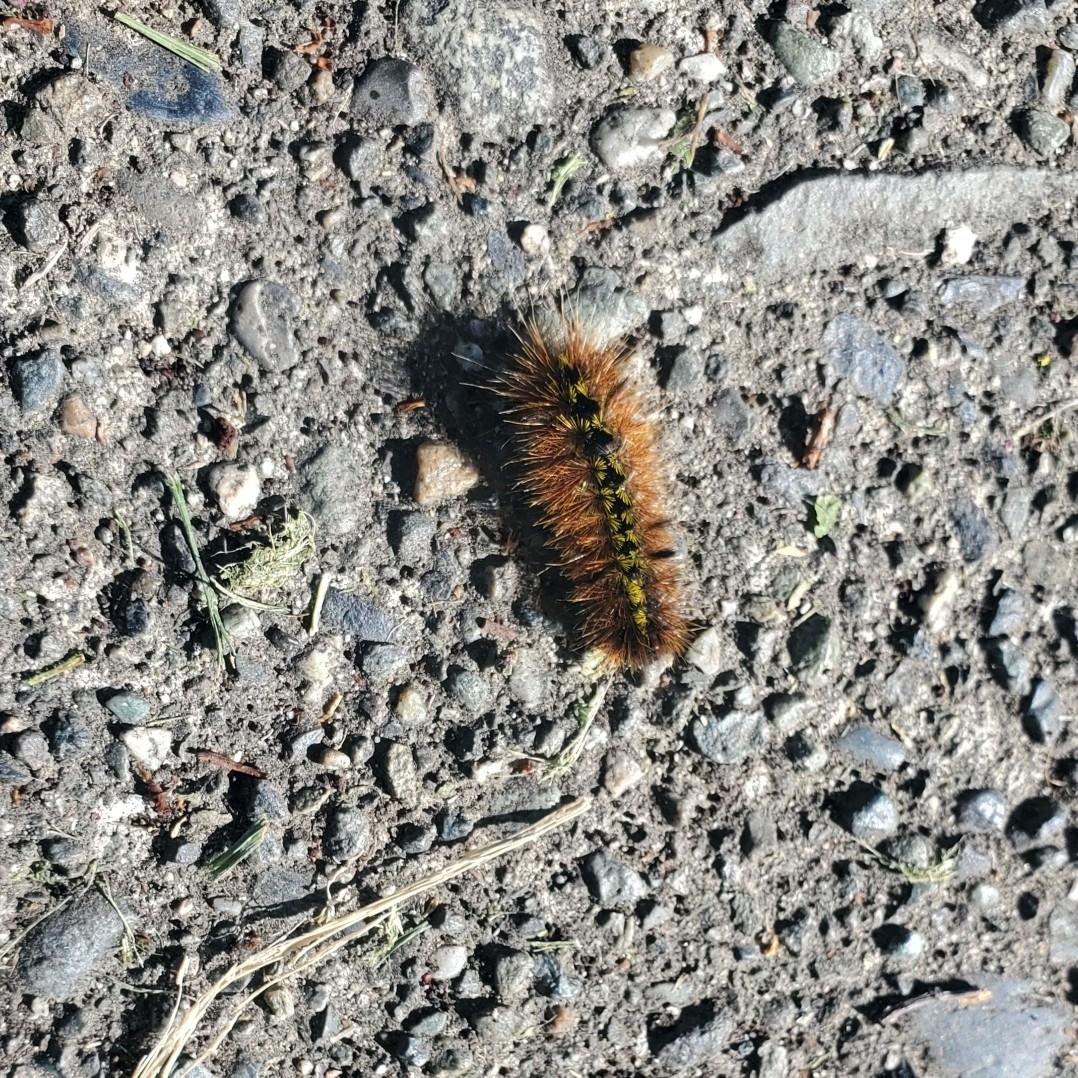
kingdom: Animalia
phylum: Arthropoda
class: Insecta
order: Lepidoptera
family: Erebidae
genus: Lophocampa
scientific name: Lophocampa argentata
